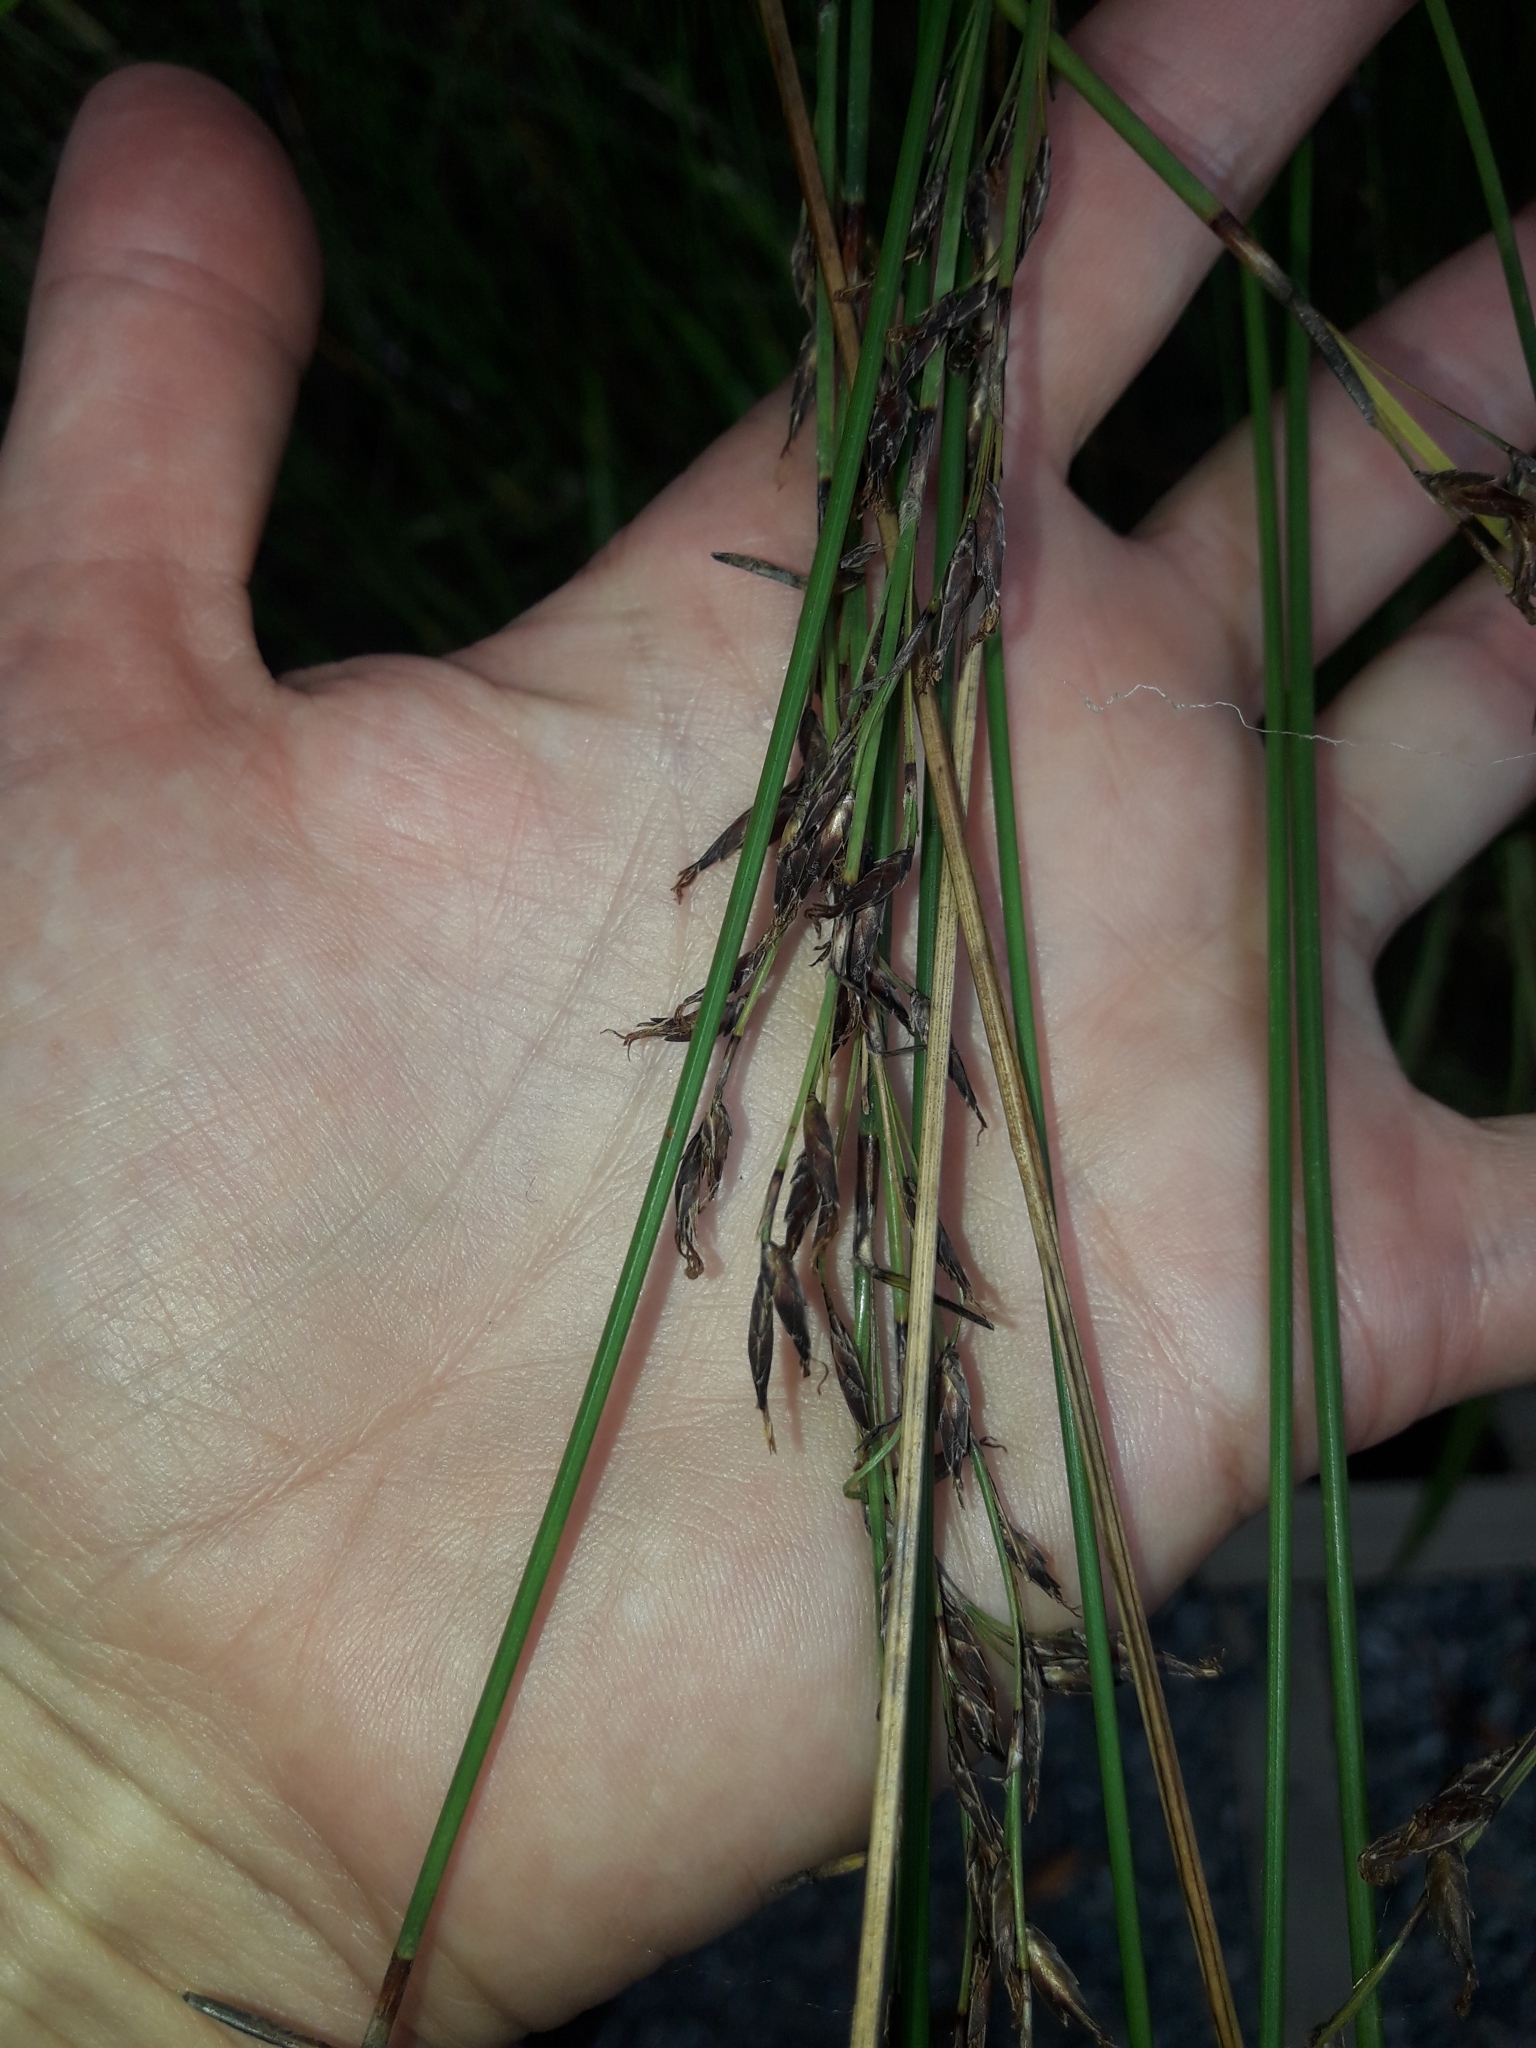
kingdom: Plantae
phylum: Tracheophyta
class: Liliopsida
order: Poales
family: Cyperaceae
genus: Schoenus
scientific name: Schoenus tendo
